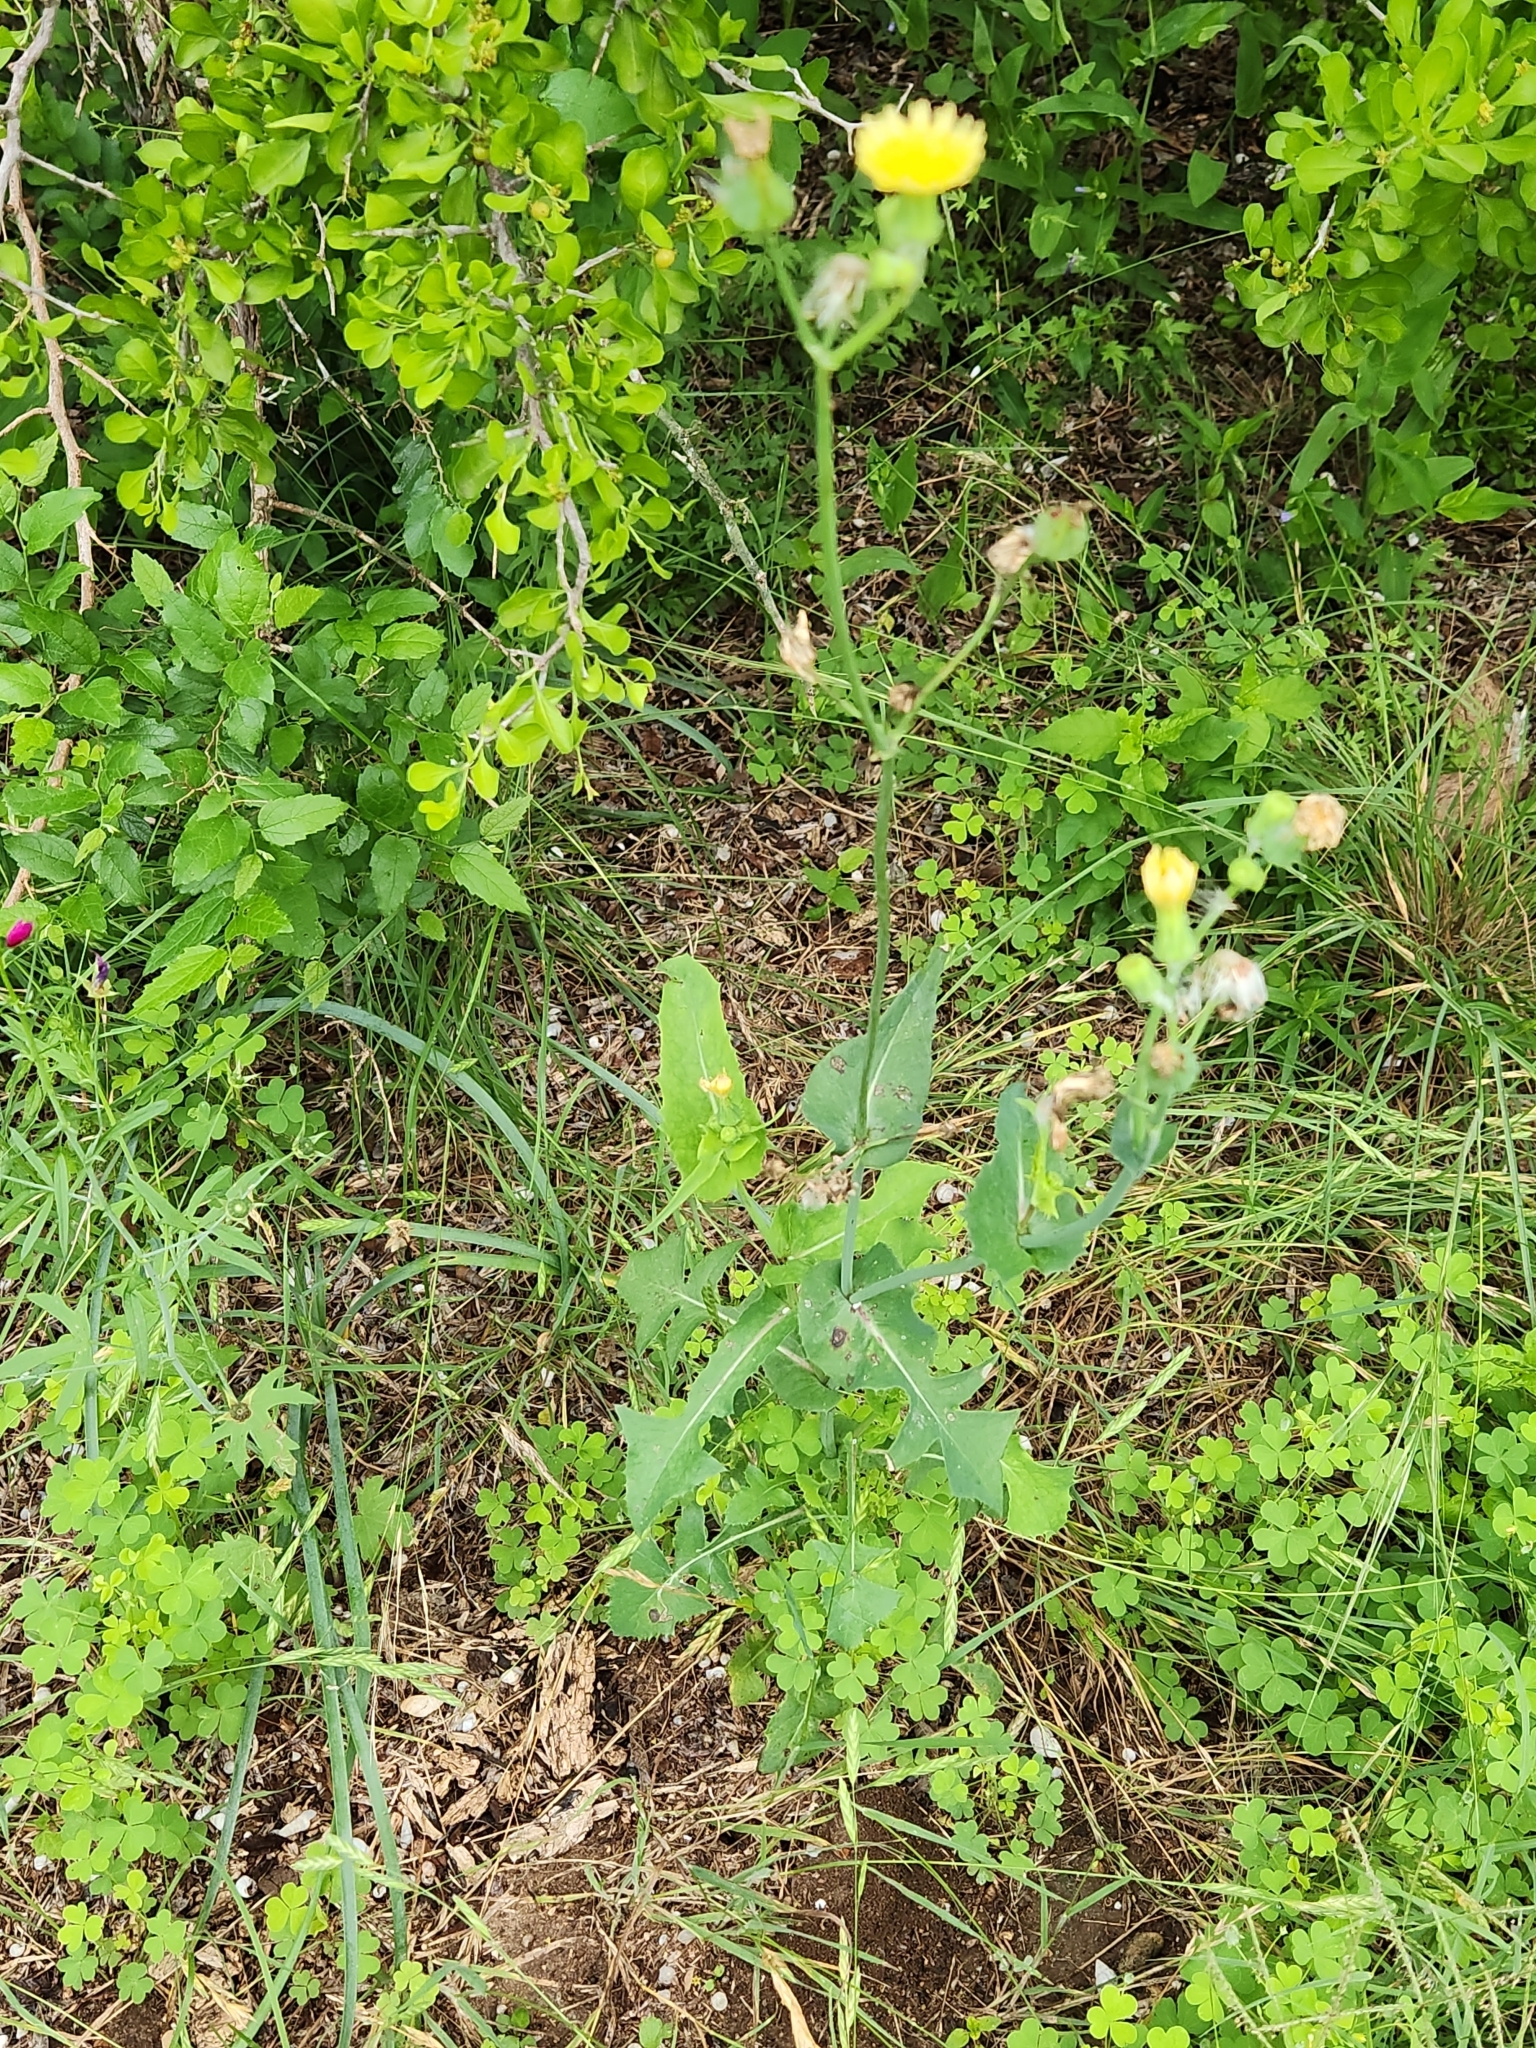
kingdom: Plantae
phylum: Tracheophyta
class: Magnoliopsida
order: Asterales
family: Asteraceae
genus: Sonchus
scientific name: Sonchus oleraceus
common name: Common sowthistle
